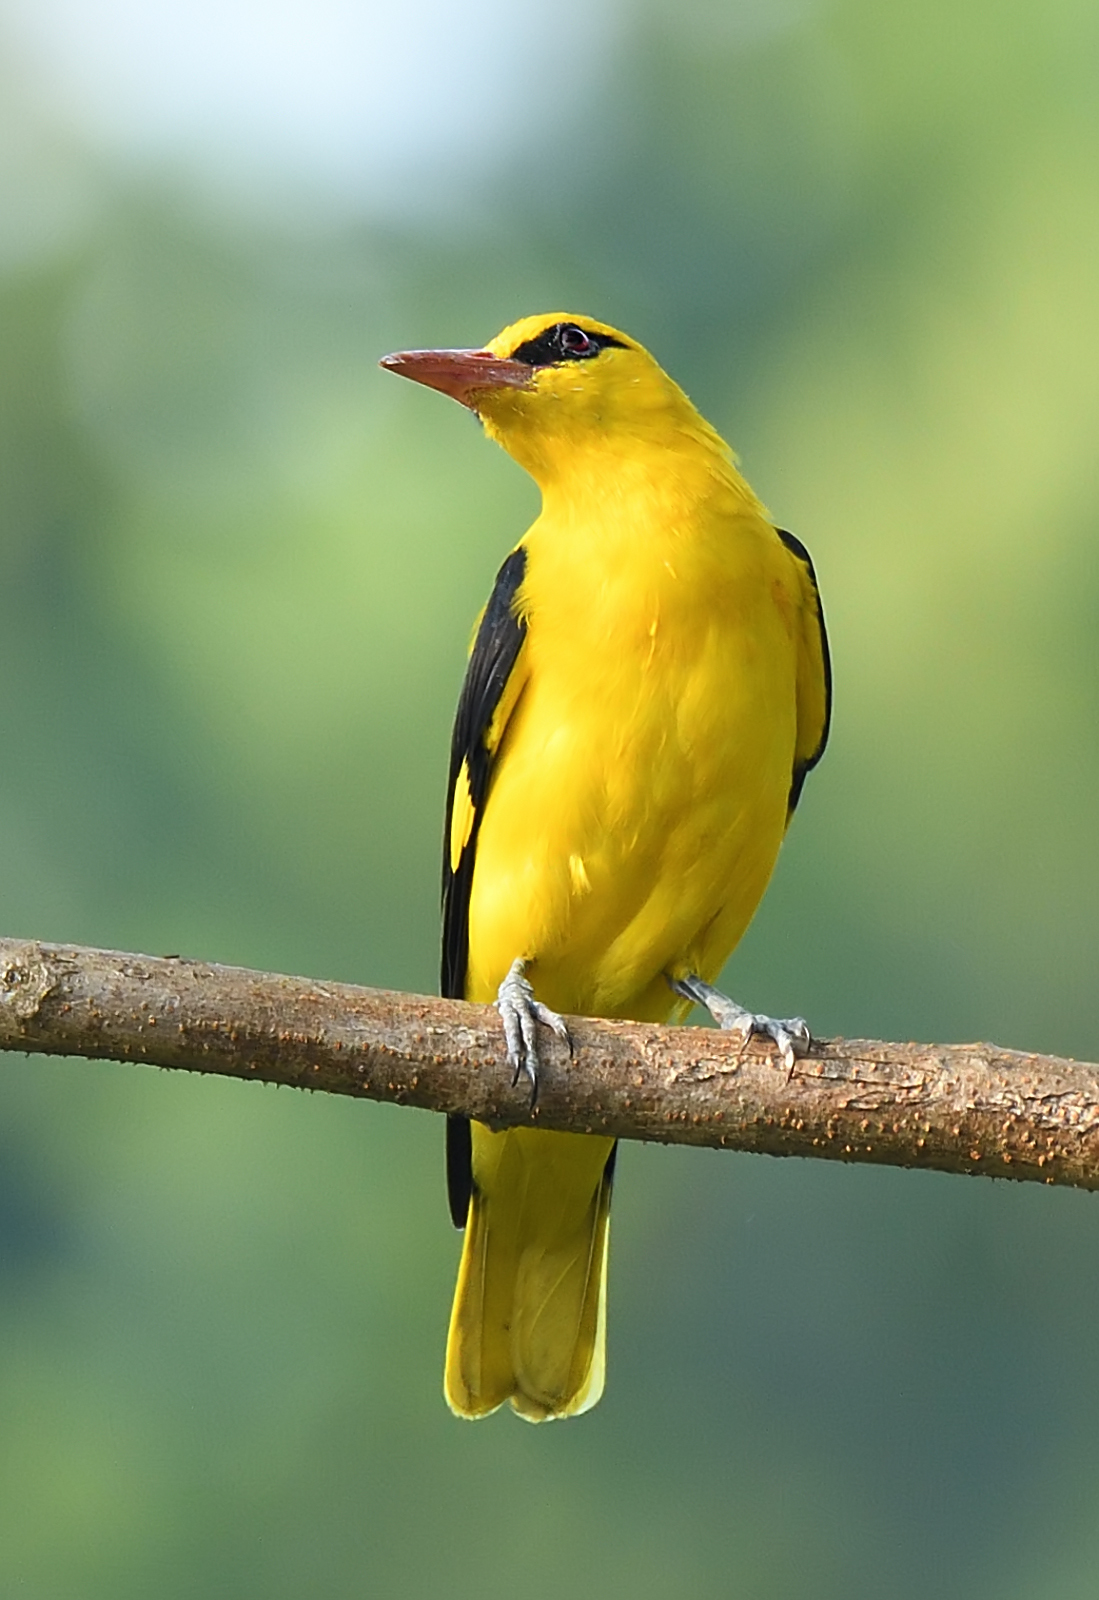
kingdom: Animalia
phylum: Chordata
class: Aves
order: Passeriformes
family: Oriolidae
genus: Oriolus
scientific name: Oriolus kundoo
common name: Indian golden oriole
